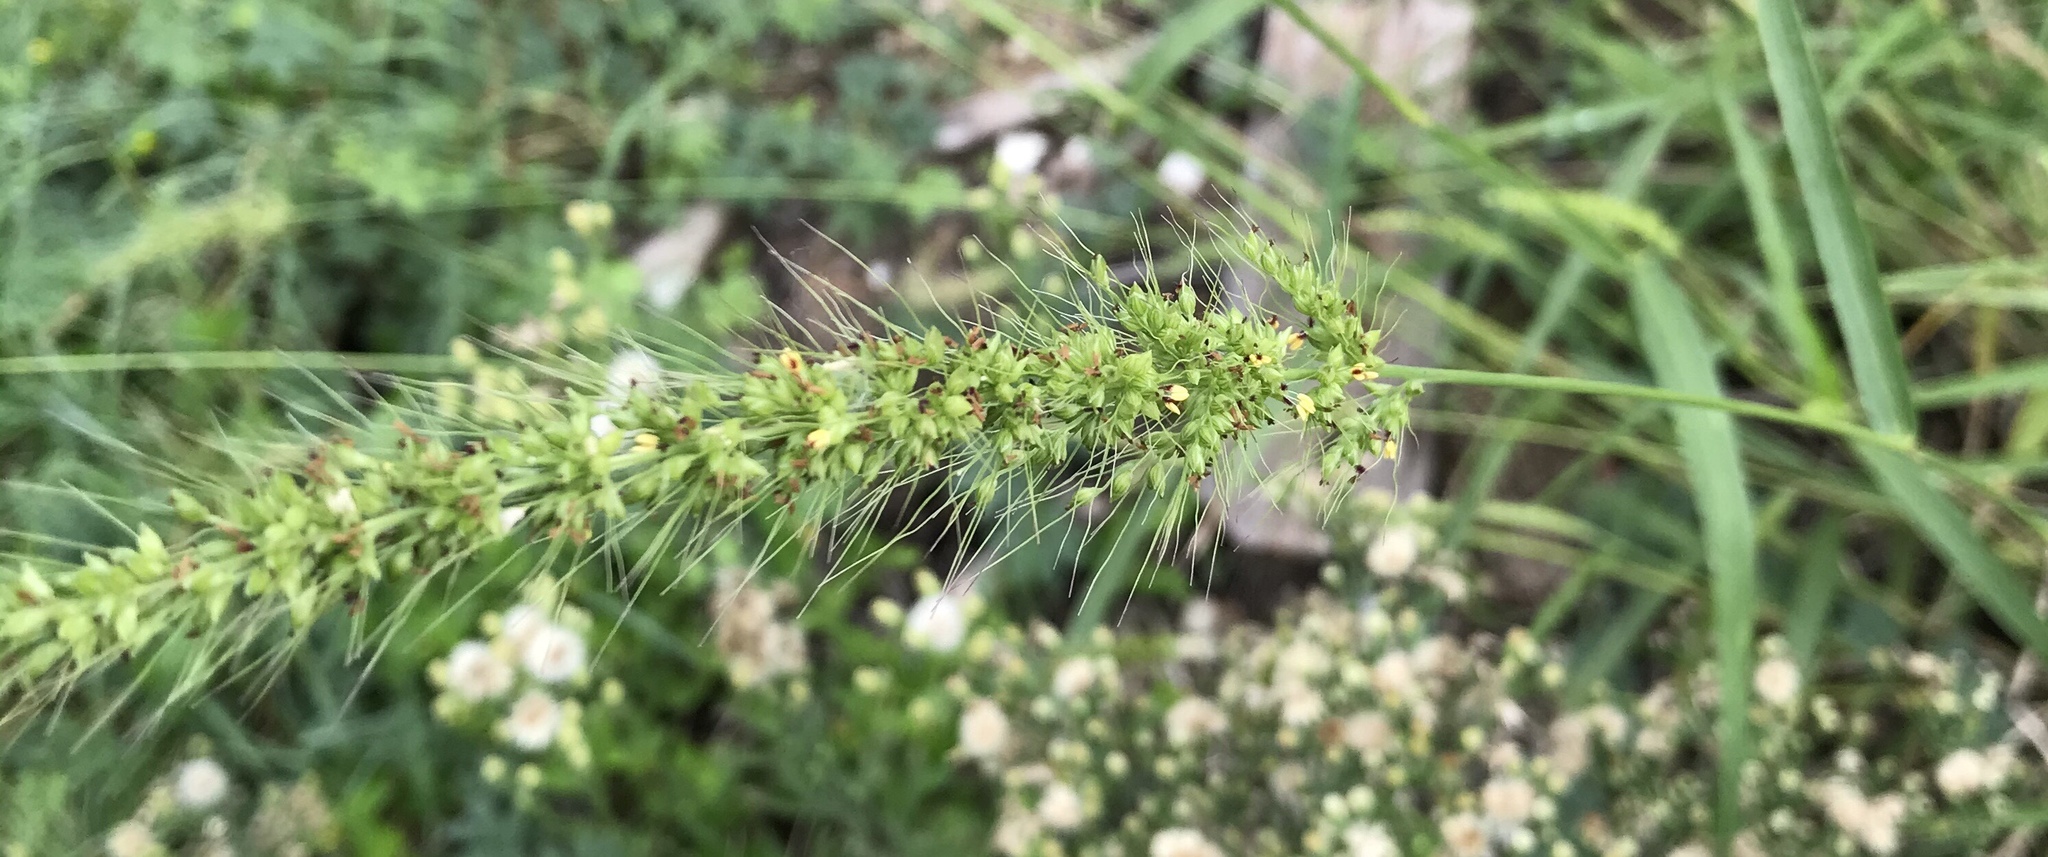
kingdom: Plantae
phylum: Tracheophyta
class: Liliopsida
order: Poales
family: Poaceae
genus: Setaria
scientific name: Setaria scheelei
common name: Southwestern bristle grass
